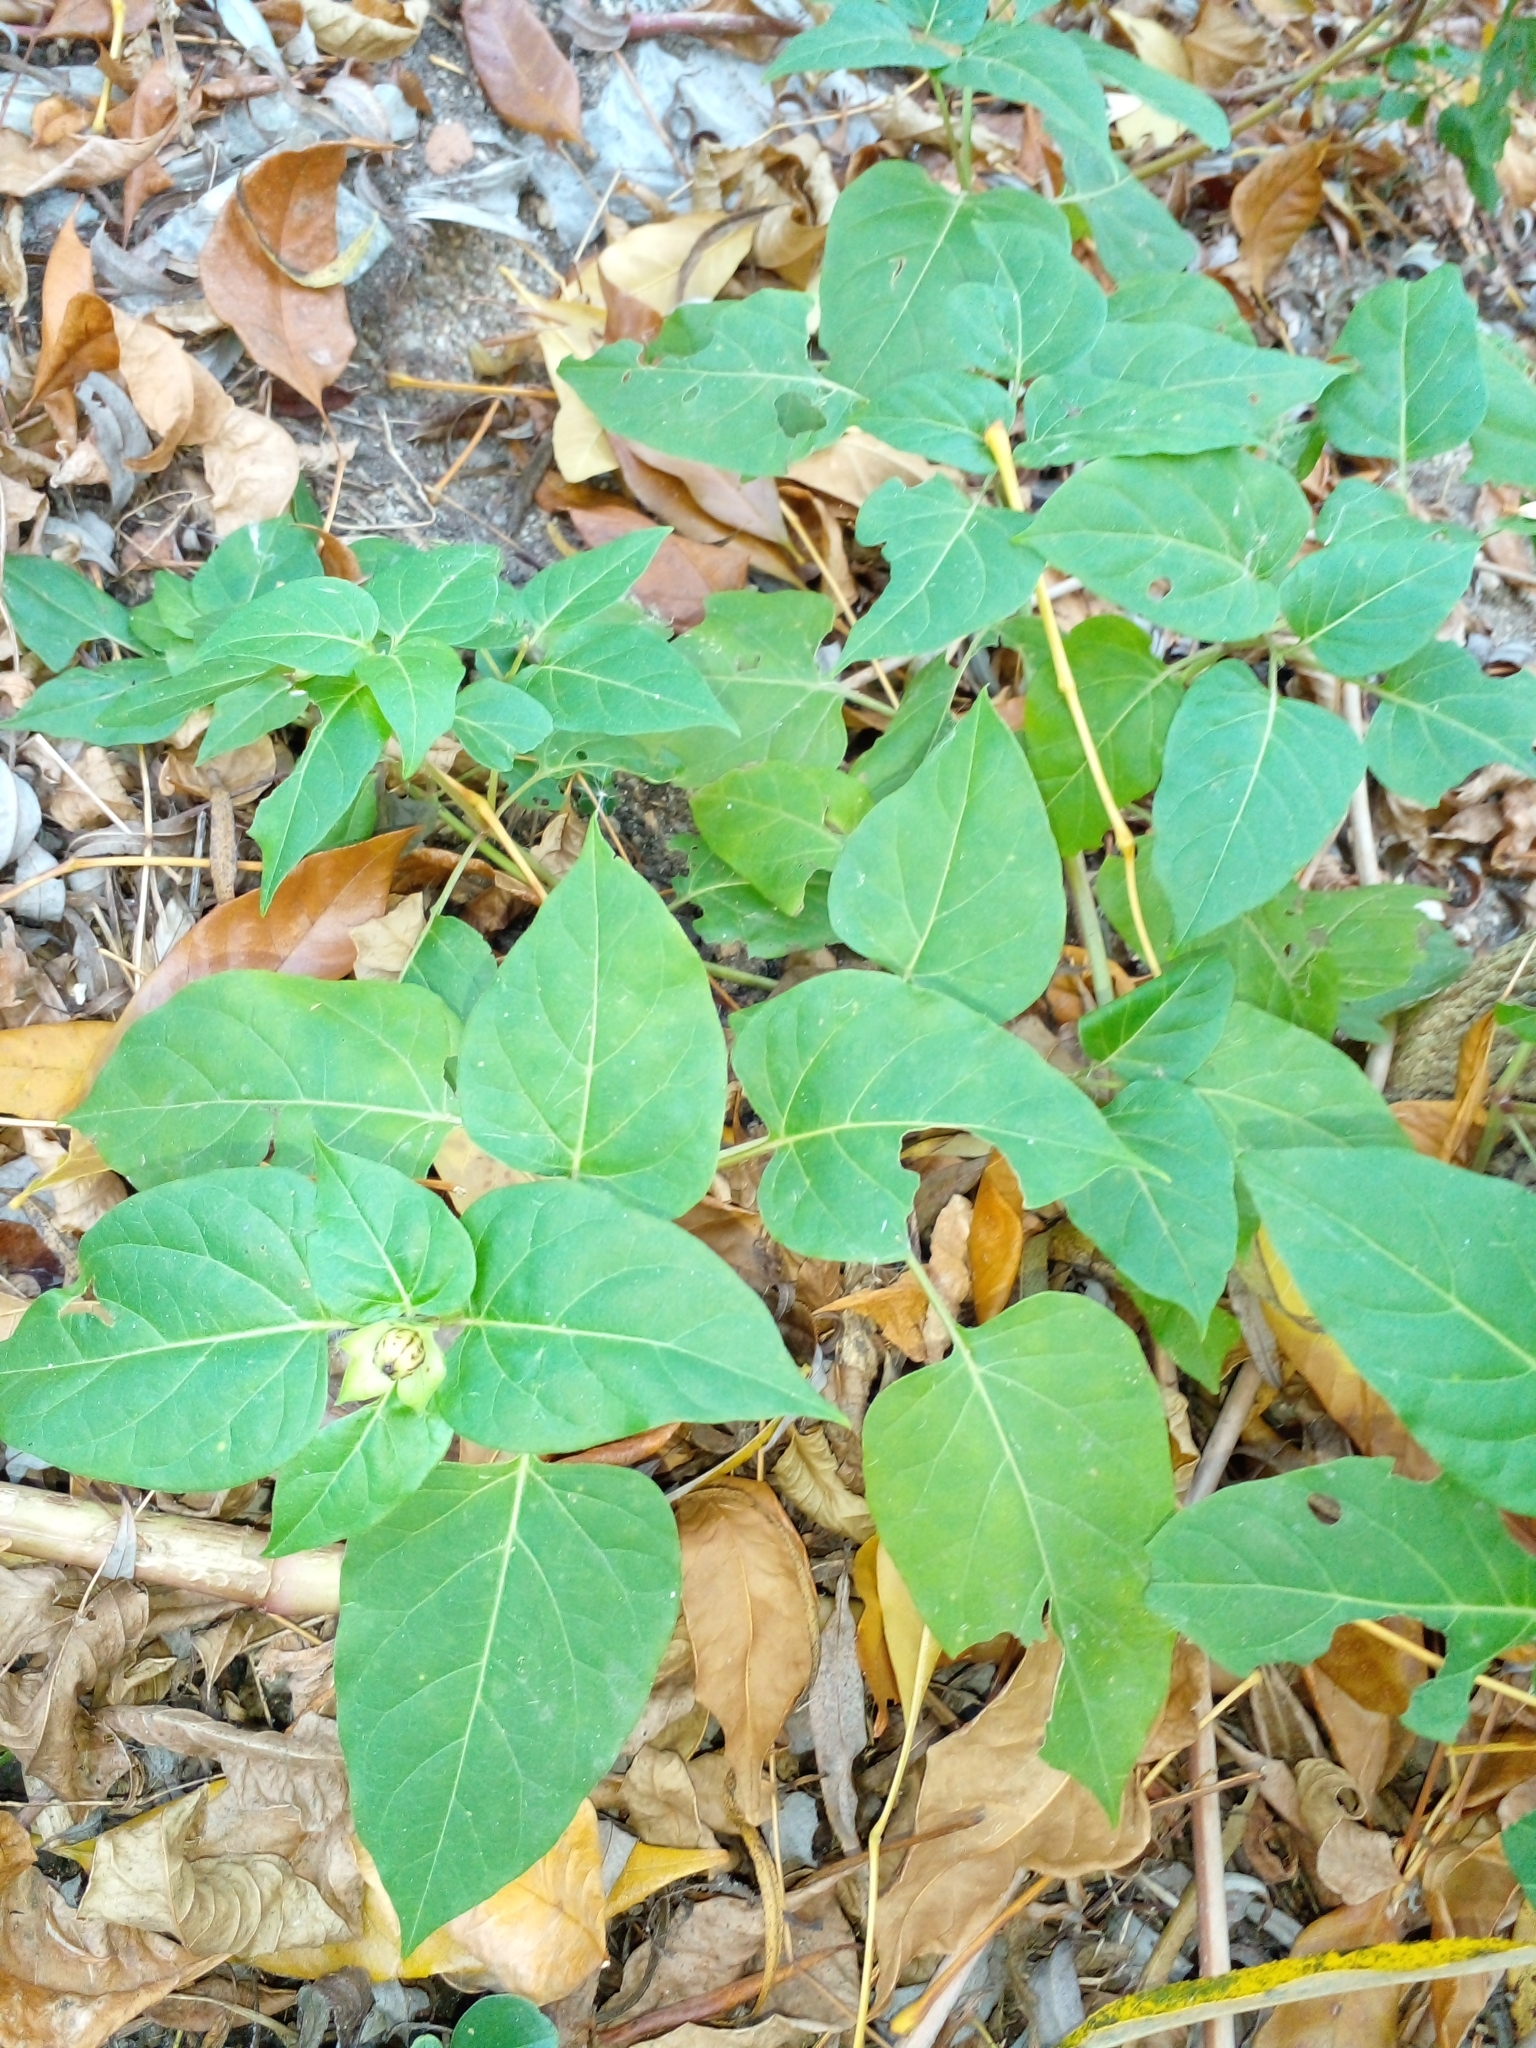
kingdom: Plantae
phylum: Tracheophyta
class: Magnoliopsida
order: Caryophyllales
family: Nyctaginaceae
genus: Mirabilis
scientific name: Mirabilis jalapa
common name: Marvel-of-peru
